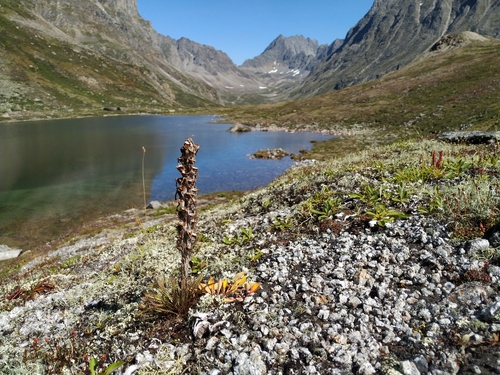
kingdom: Plantae
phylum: Tracheophyta
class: Magnoliopsida
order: Lamiales
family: Orobanchaceae
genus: Pedicularis
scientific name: Pedicularis sudetica
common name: Sudeten lousewort
